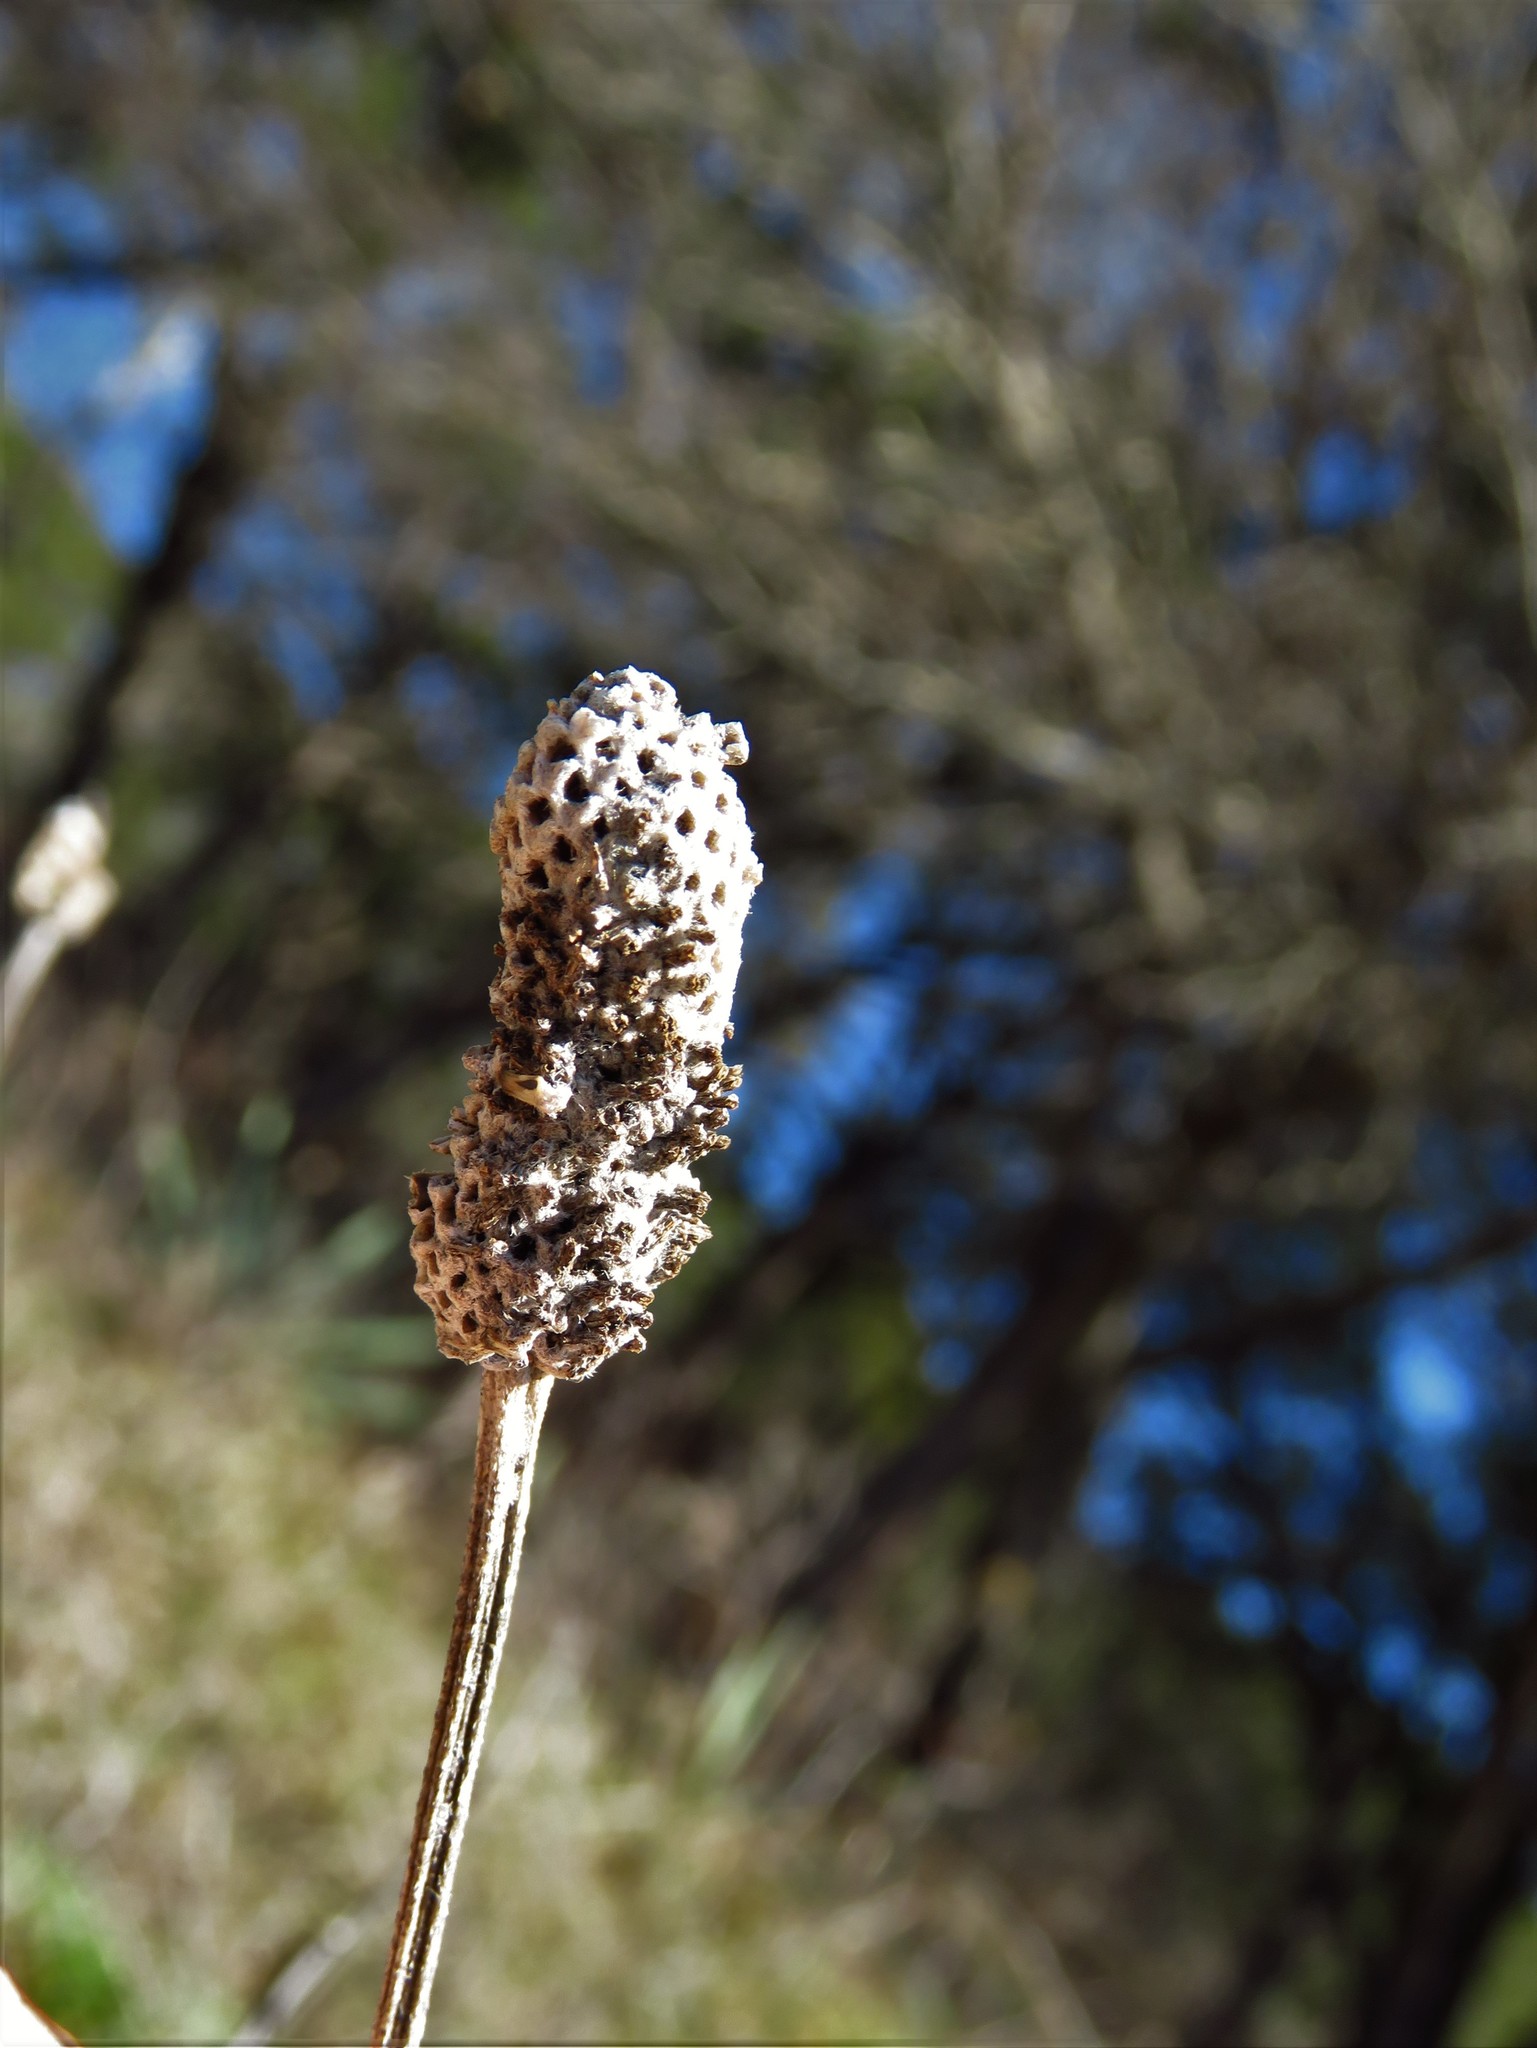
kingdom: Plantae
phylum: Tracheophyta
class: Magnoliopsida
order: Asterales
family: Asteraceae
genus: Ratibida
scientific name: Ratibida columnifera
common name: Prairie coneflower
